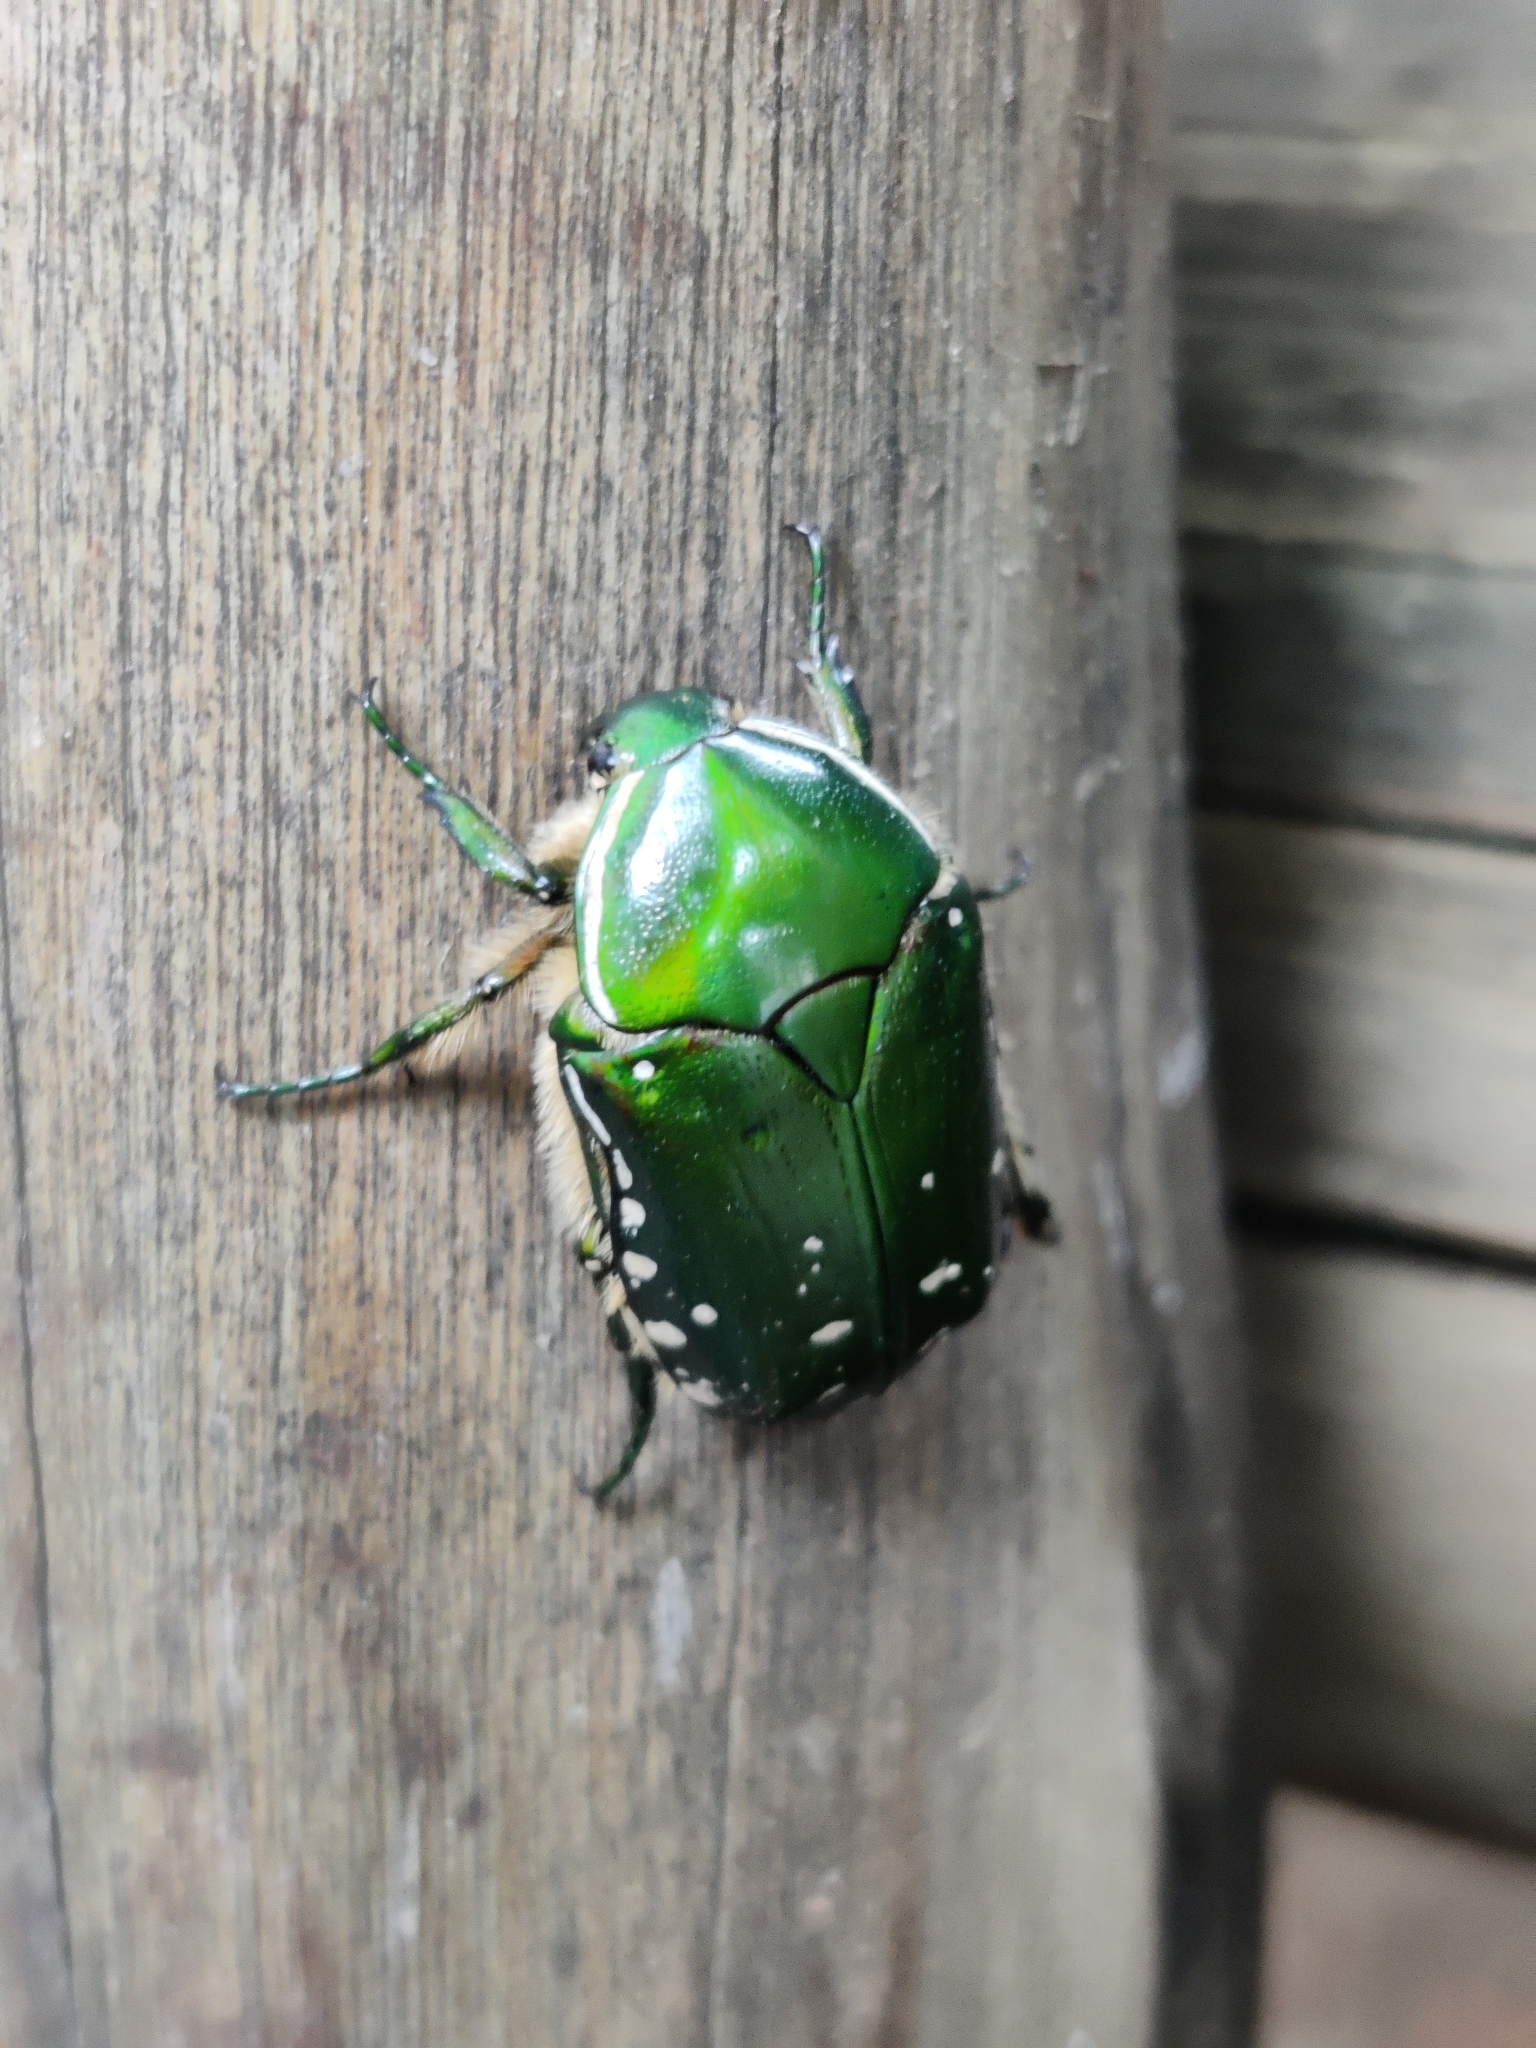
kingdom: Animalia
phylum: Arthropoda
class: Insecta
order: Coleoptera
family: Scarabaeidae
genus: Rhabdotis
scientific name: Rhabdotis aulica
